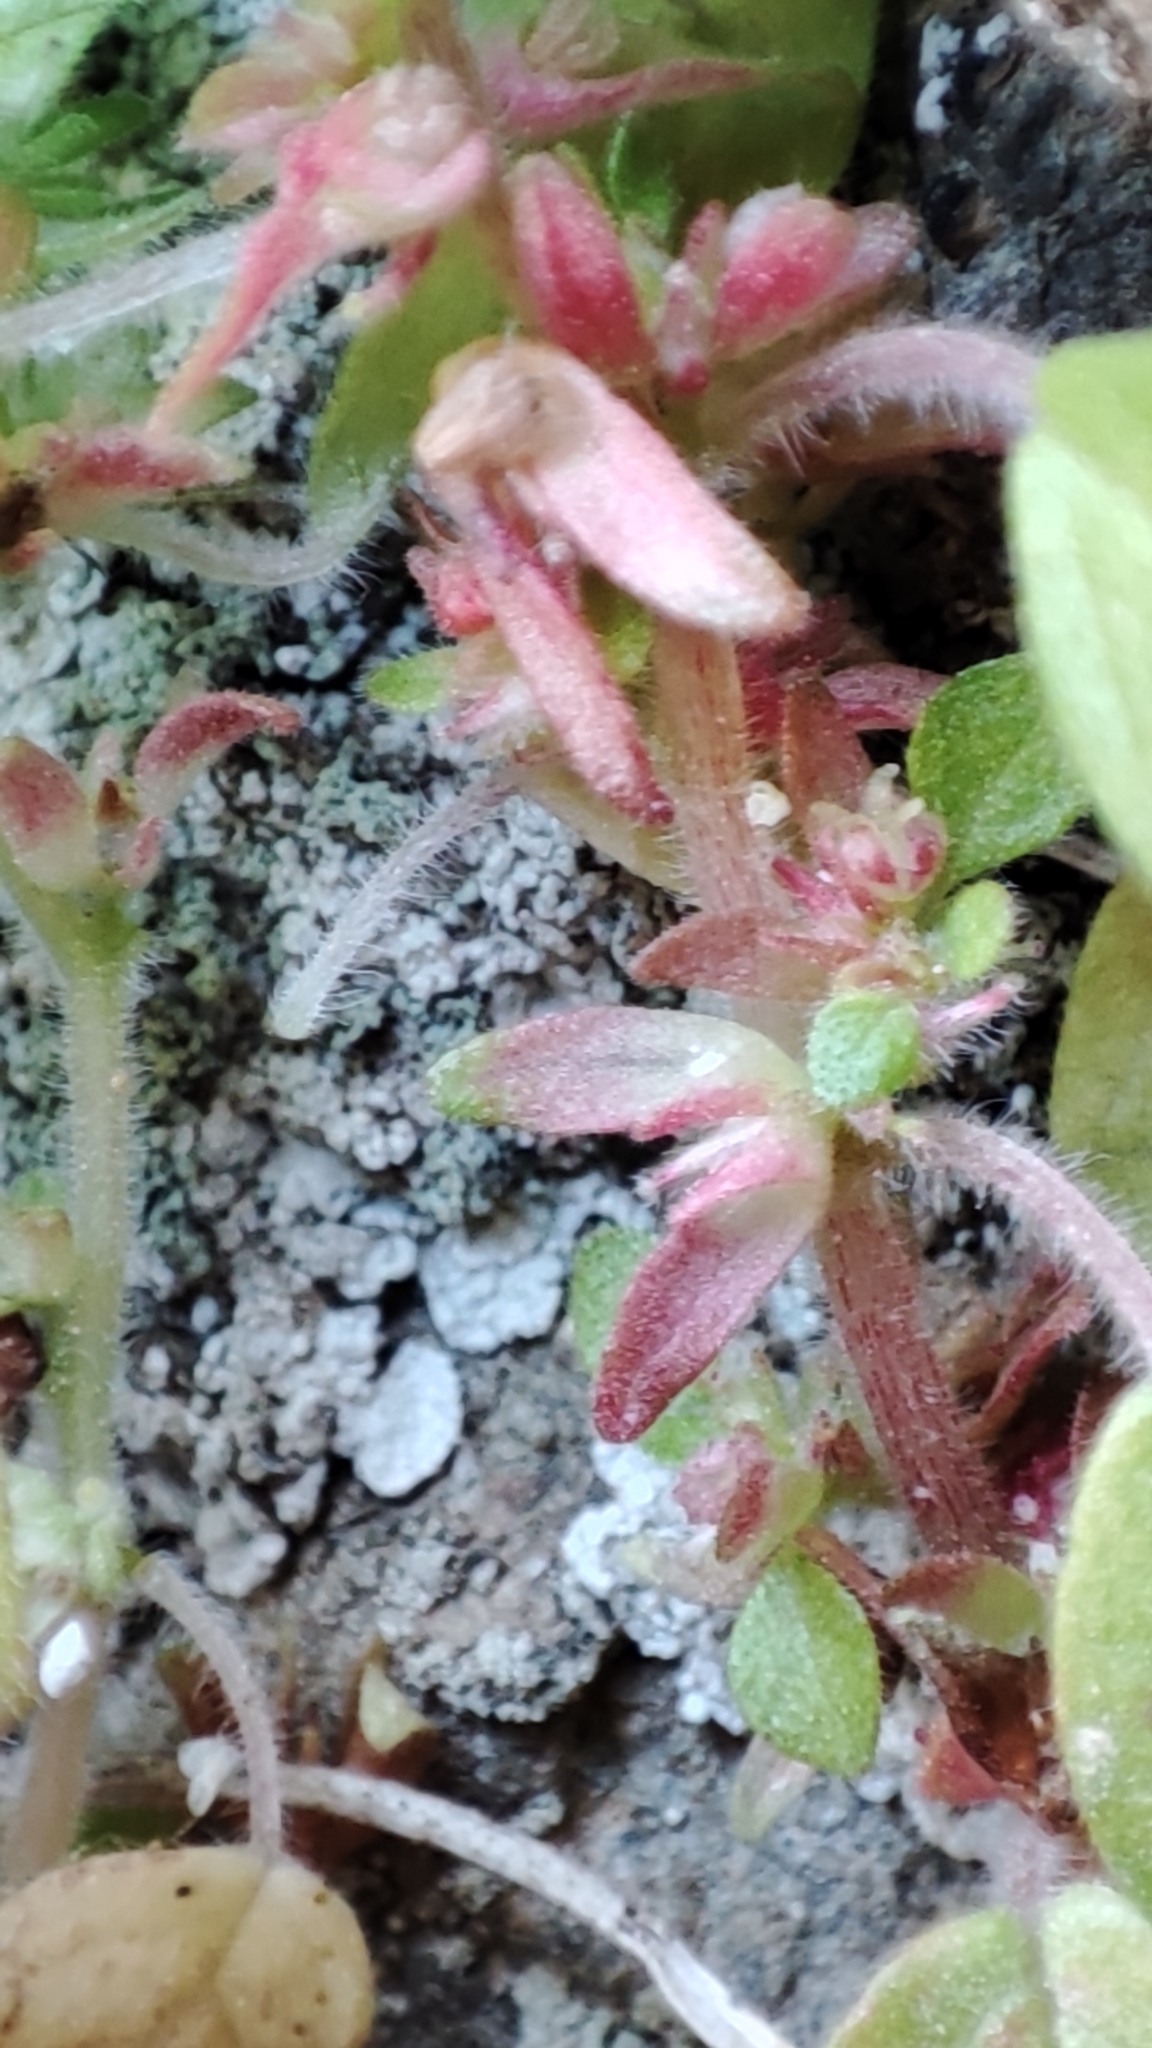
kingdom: Plantae
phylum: Tracheophyta
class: Magnoliopsida
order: Rosales
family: Urticaceae
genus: Parietaria
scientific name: Parietaria cretica
